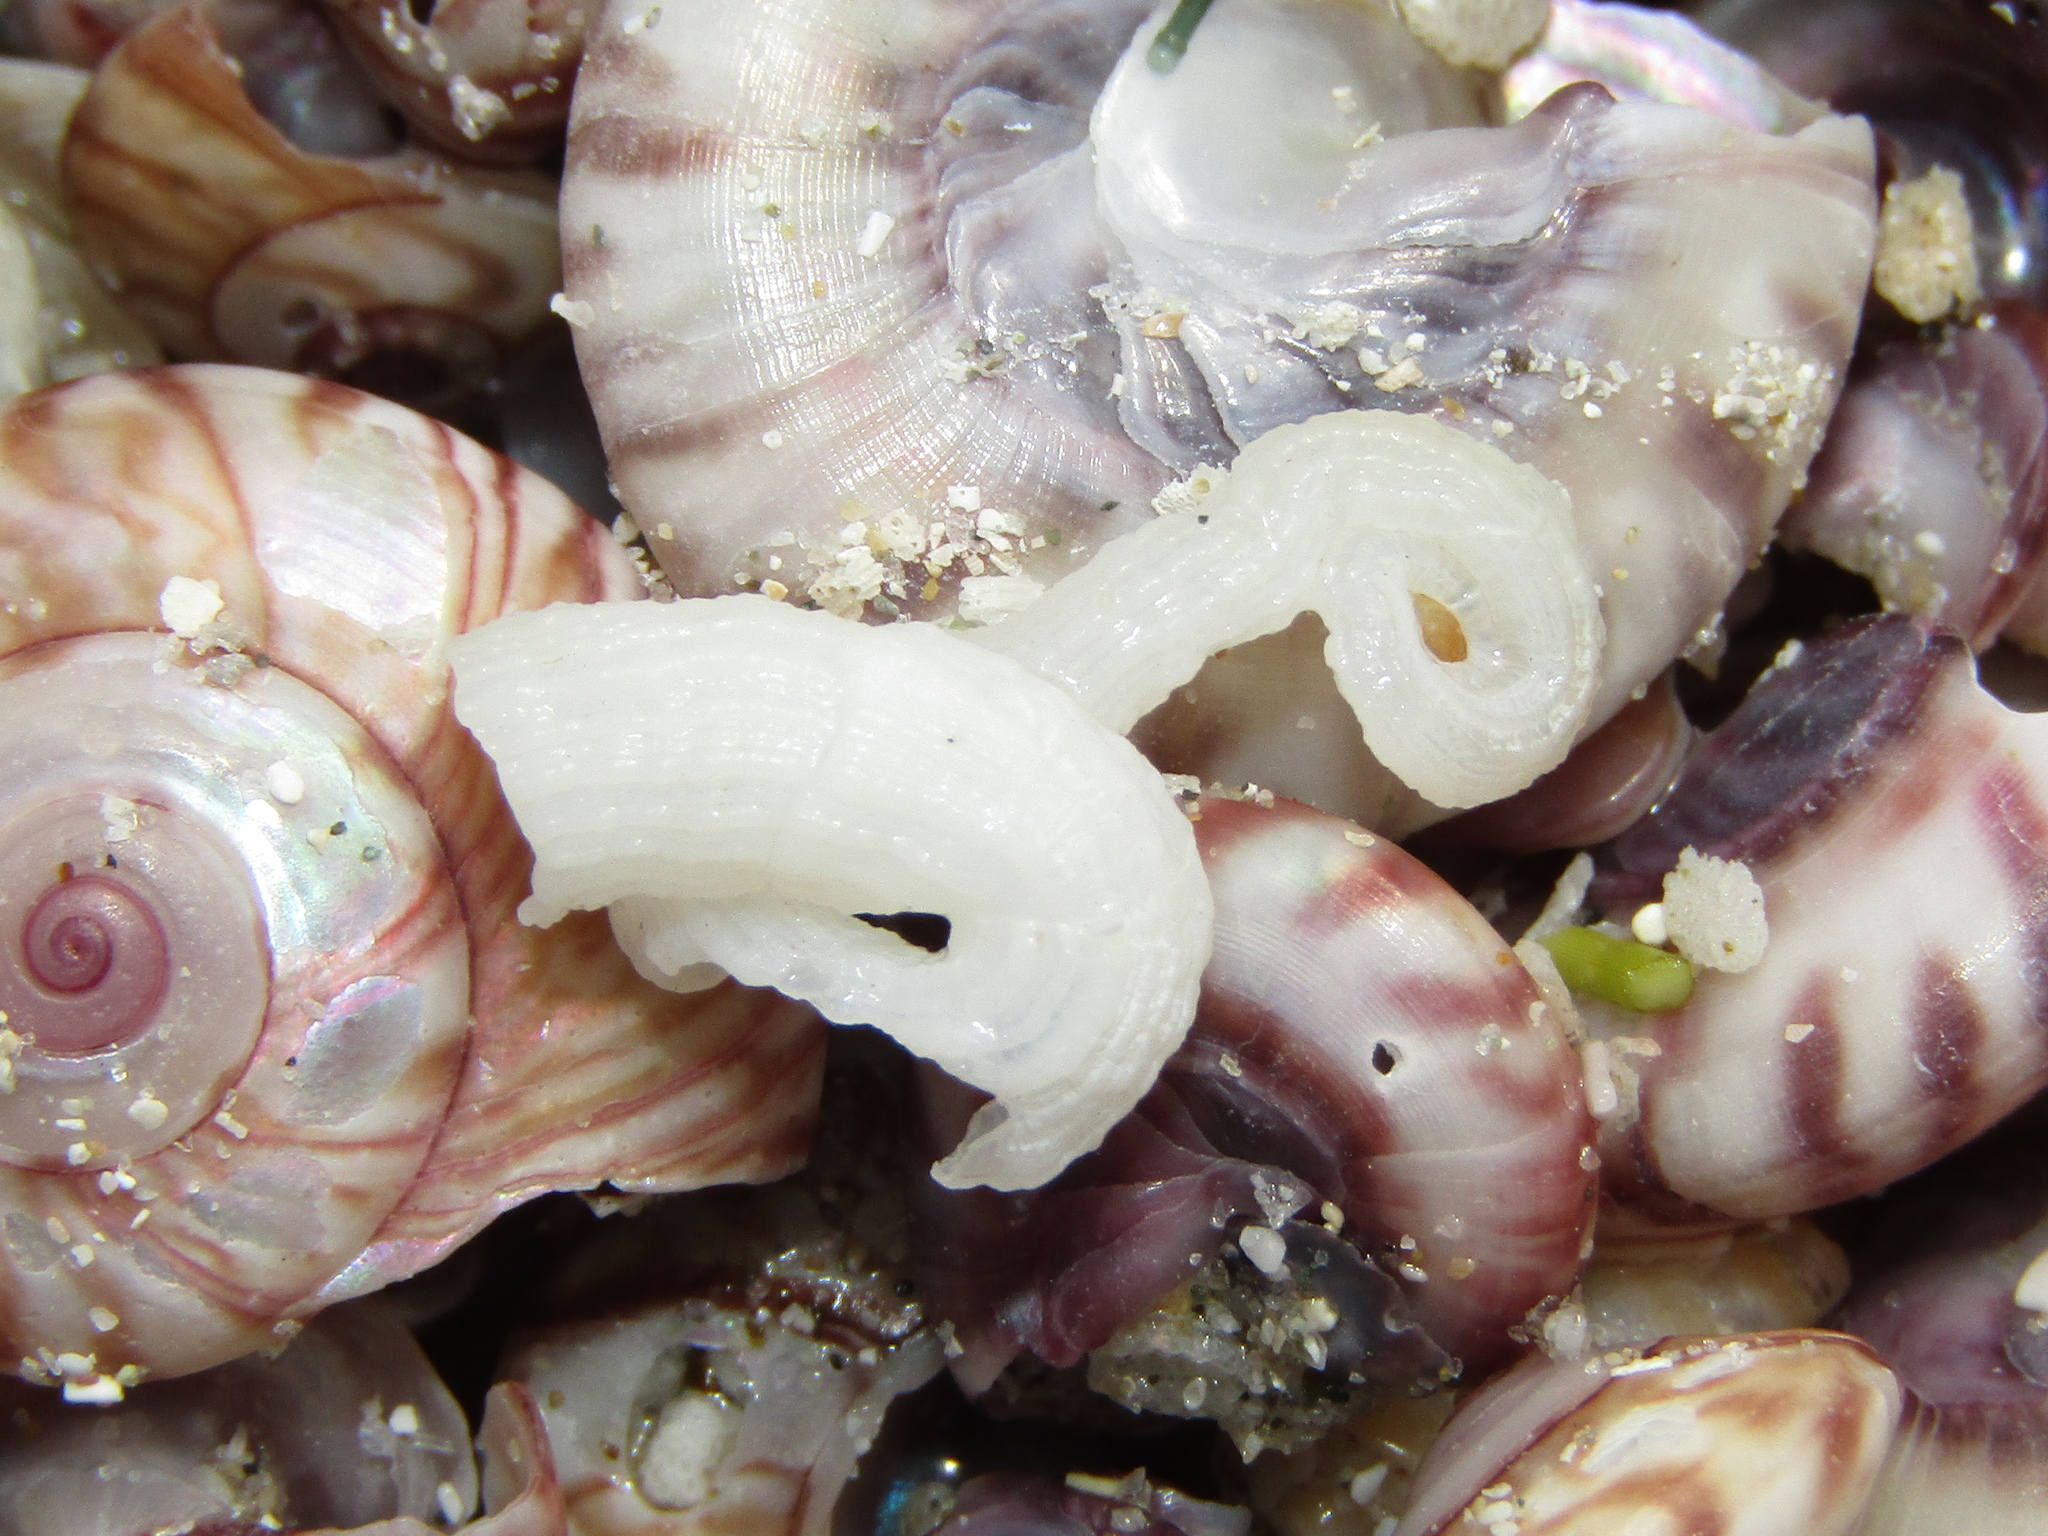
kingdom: Animalia
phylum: Mollusca
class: Gastropoda
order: Littorinimorpha
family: Vermetidae
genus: Dendropoma
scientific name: Dendropoma squamiferum
